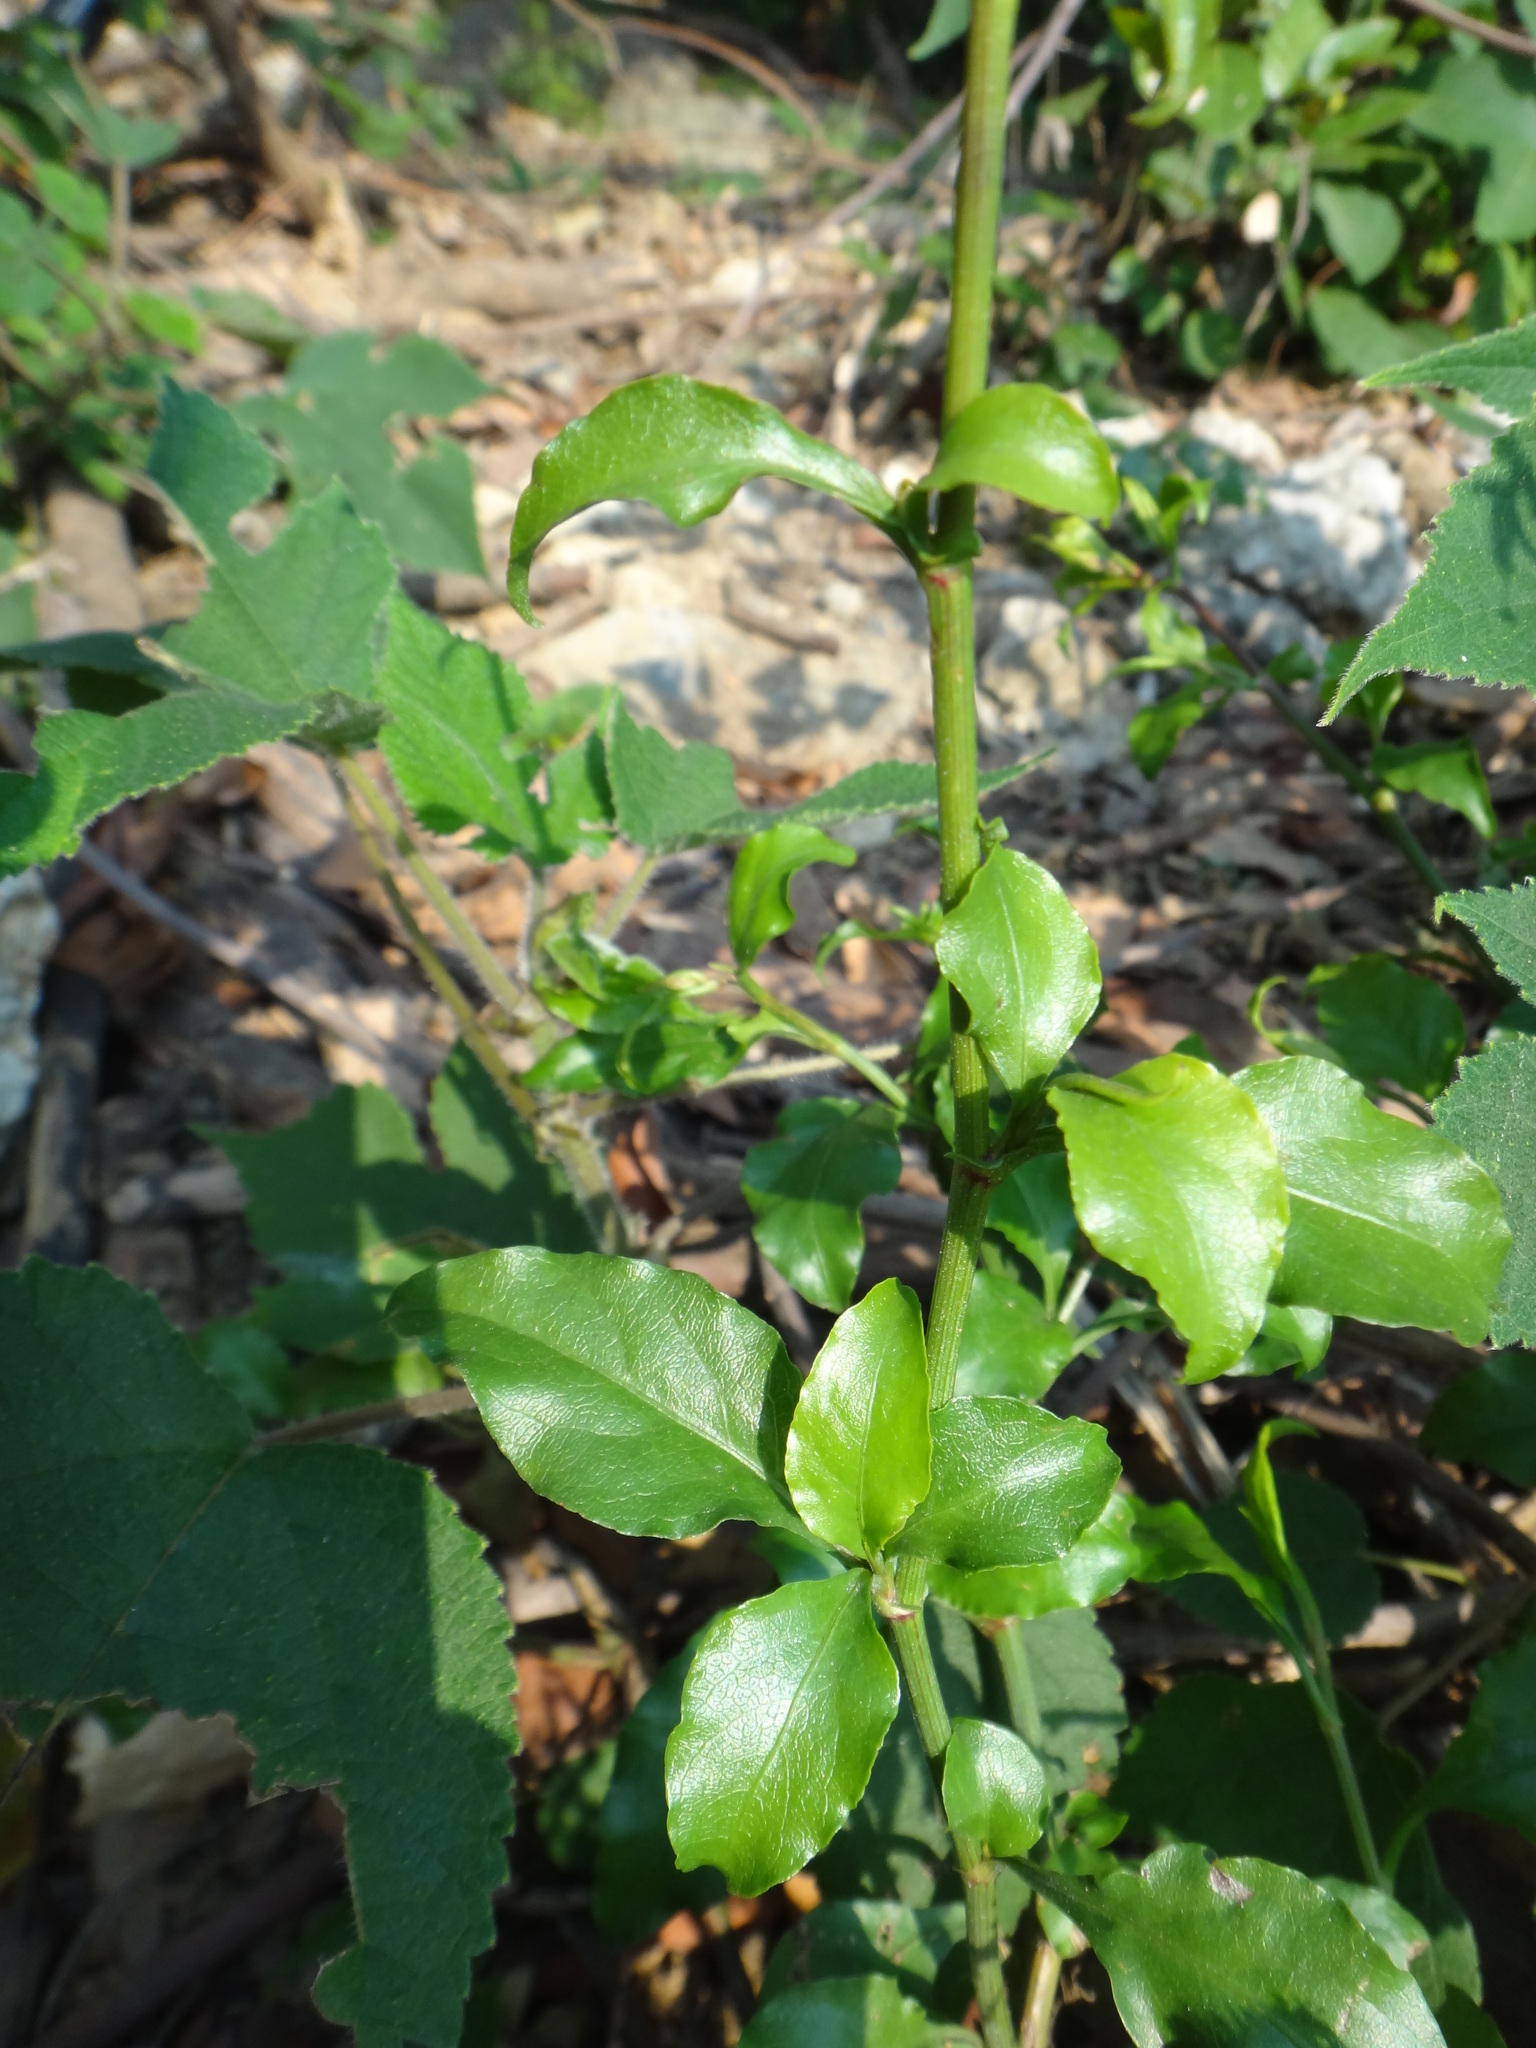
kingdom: Plantae
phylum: Tracheophyta
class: Magnoliopsida
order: Caryophyllales
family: Plumbaginaceae
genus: Plumbago
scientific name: Plumbago zeylanica
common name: Doctorbush
